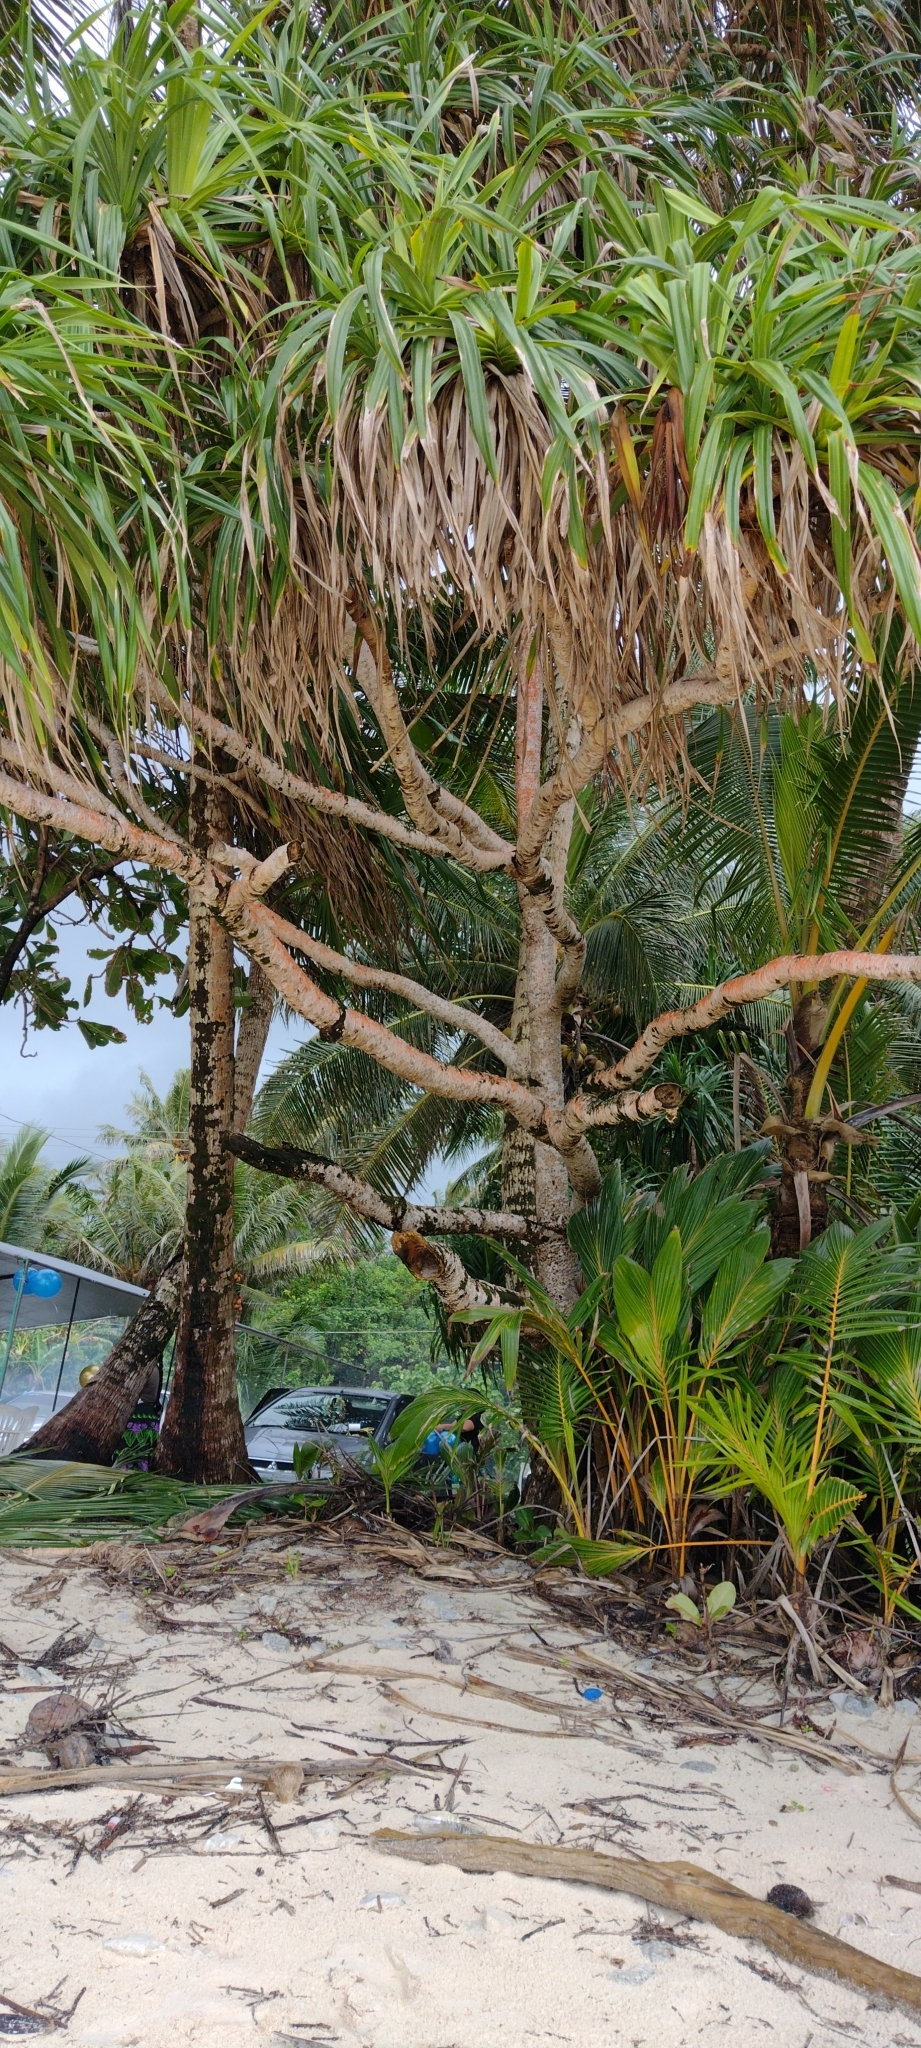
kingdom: Plantae
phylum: Tracheophyta
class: Liliopsida
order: Pandanales
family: Pandanaceae
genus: Pandanus
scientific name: Pandanus tectorius
